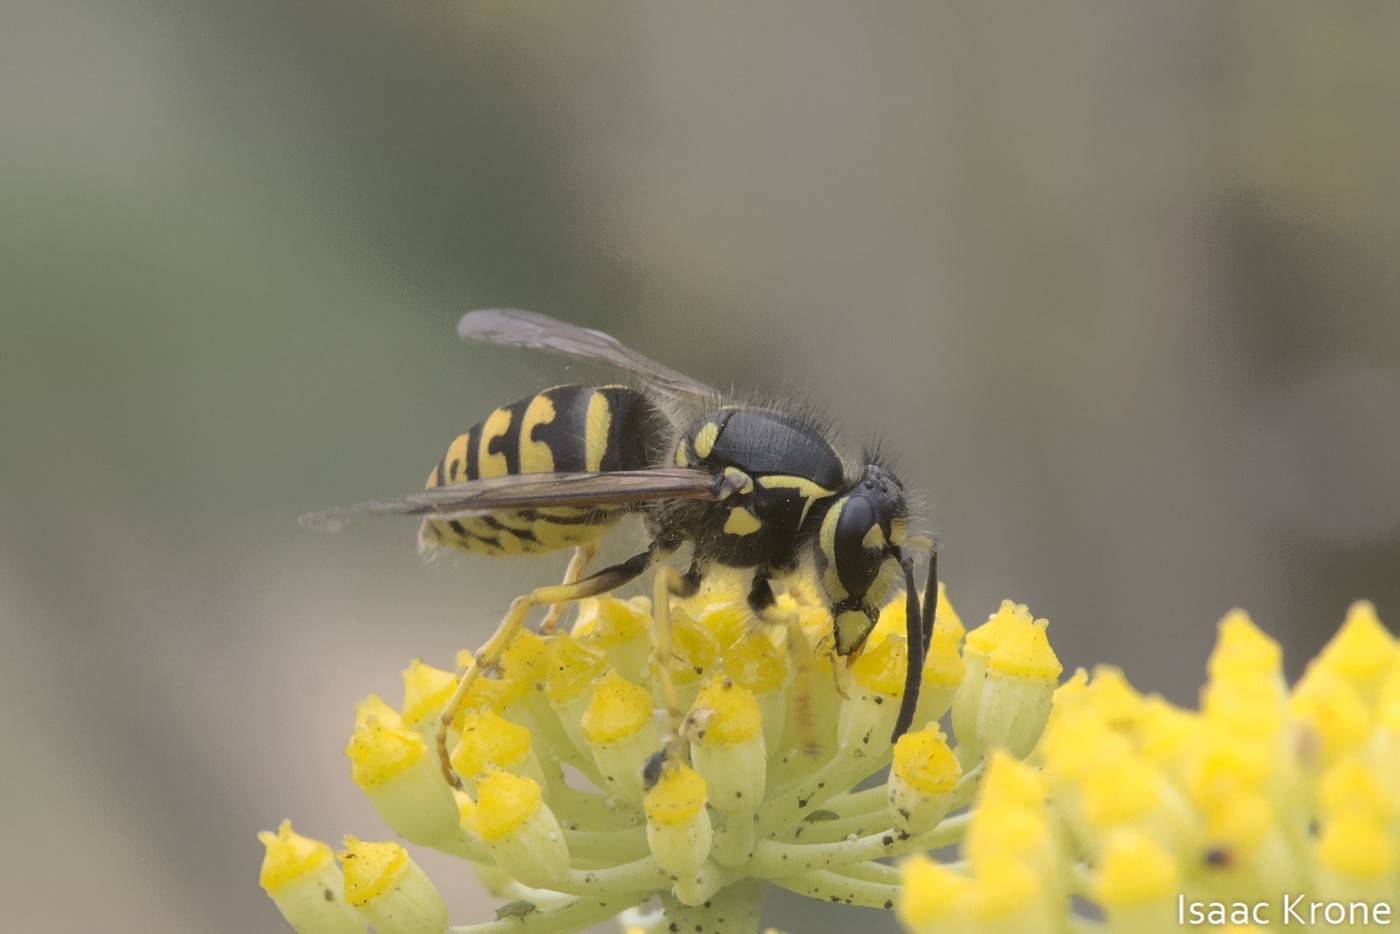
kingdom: Animalia
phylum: Arthropoda
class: Insecta
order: Hymenoptera
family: Vespidae
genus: Dolichovespula
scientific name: Dolichovespula arenaria
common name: Aerial yellowjacket
